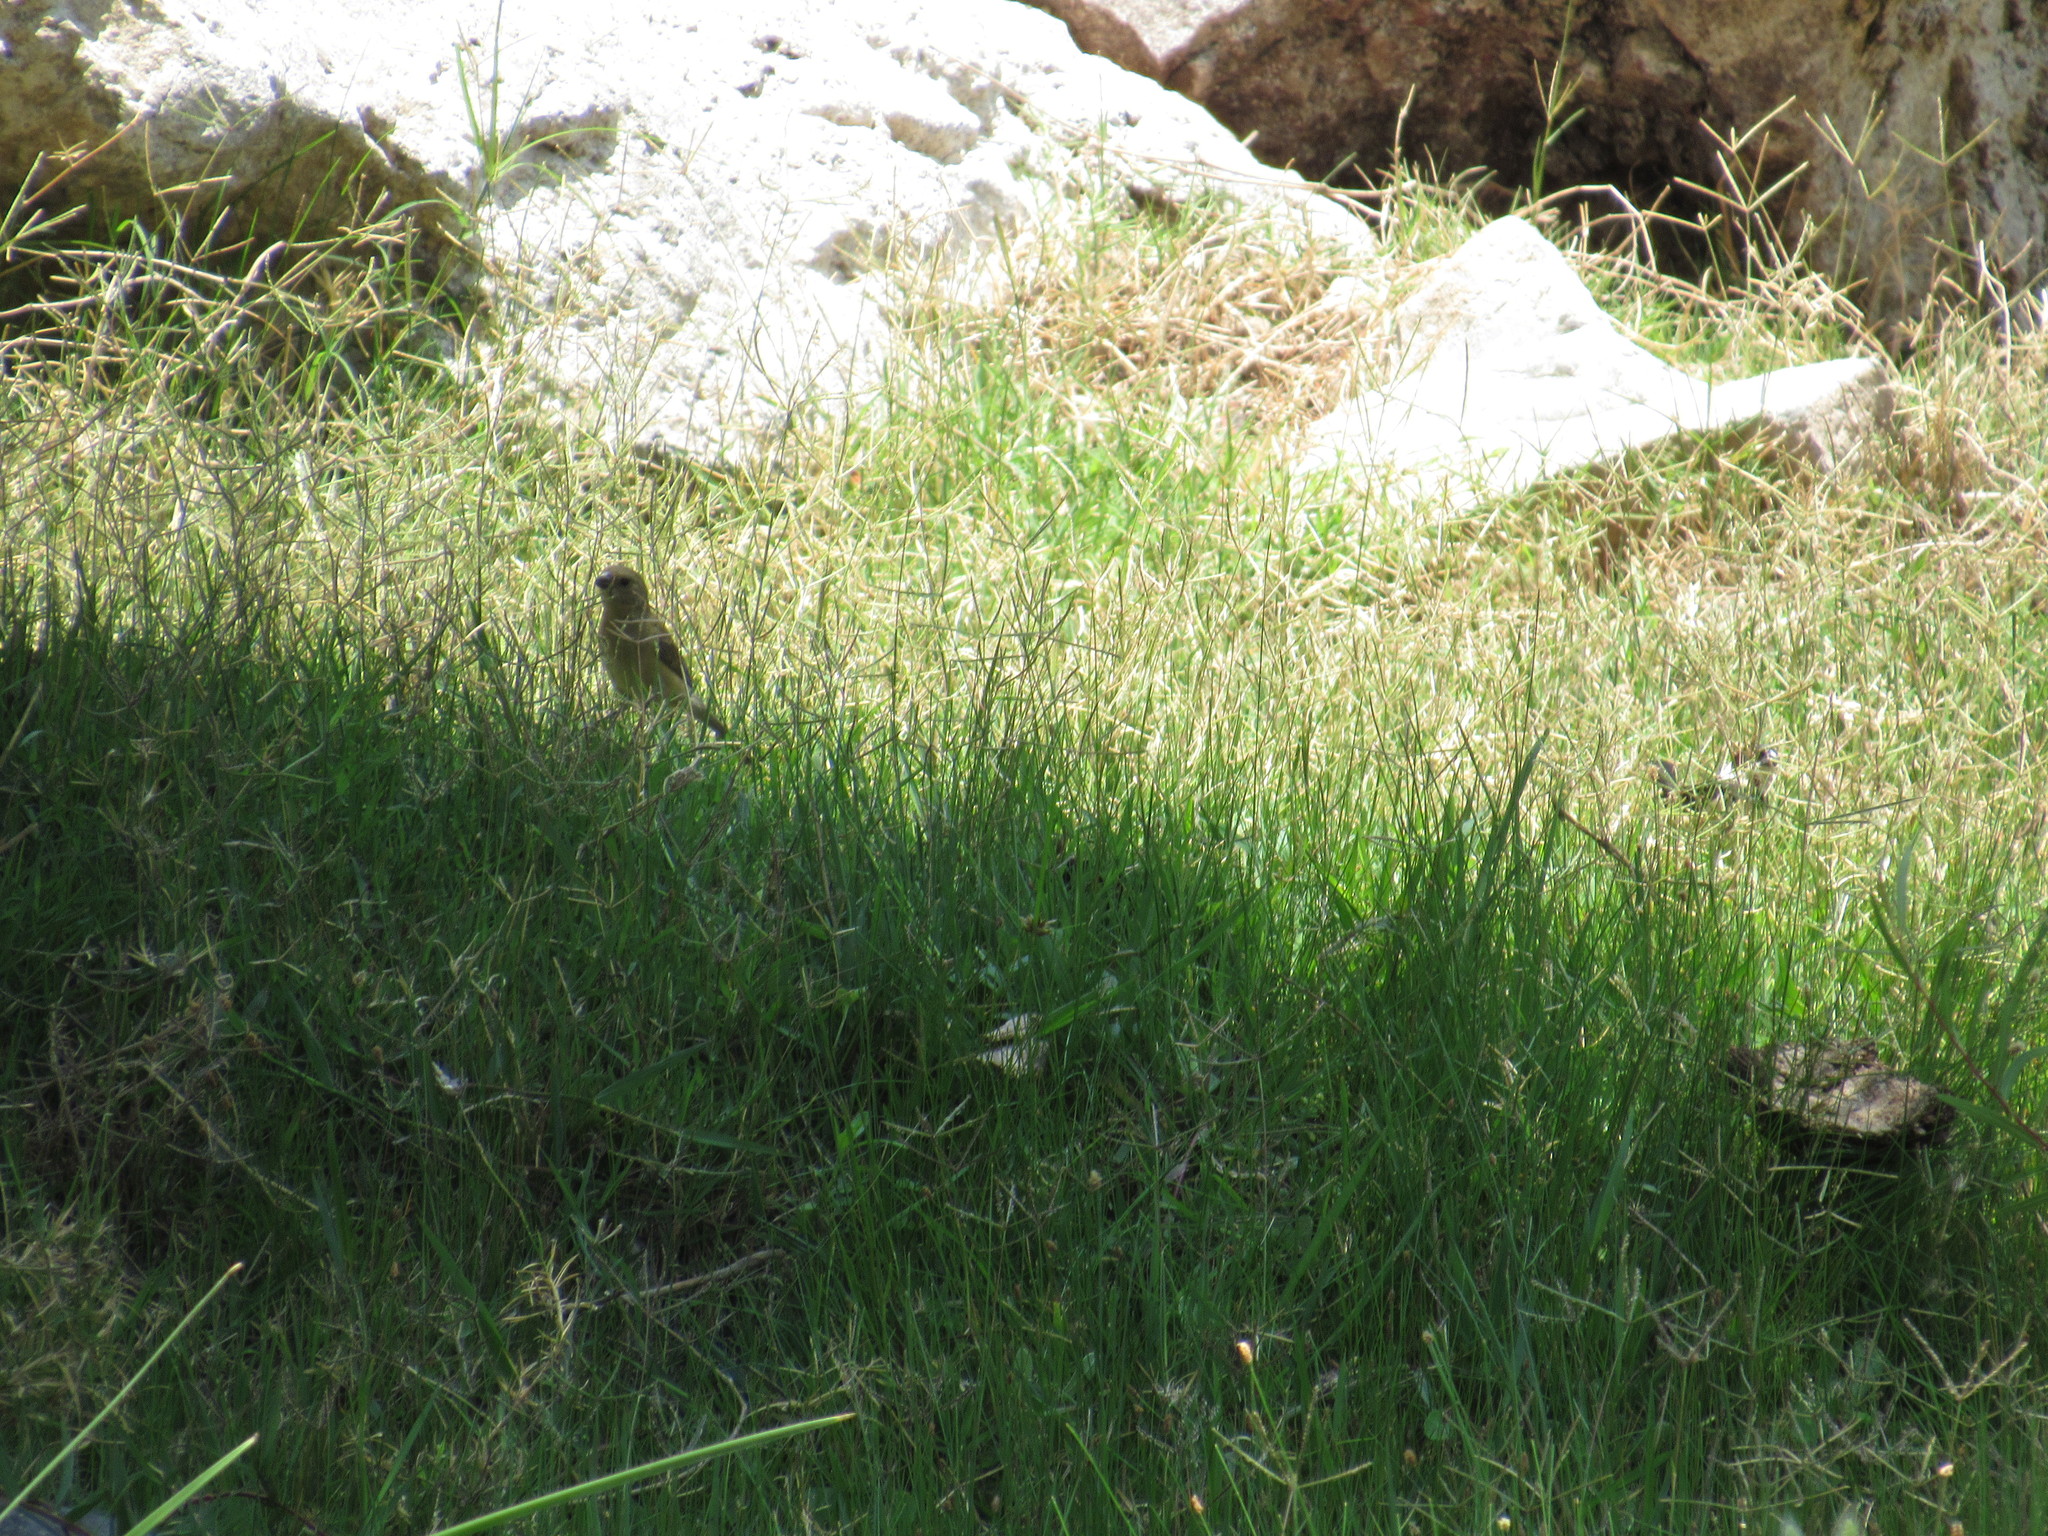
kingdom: Animalia
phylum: Chordata
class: Aves
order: Passeriformes
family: Thraupidae
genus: Sporophila
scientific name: Sporophila torqueola
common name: White-collared seedeater
